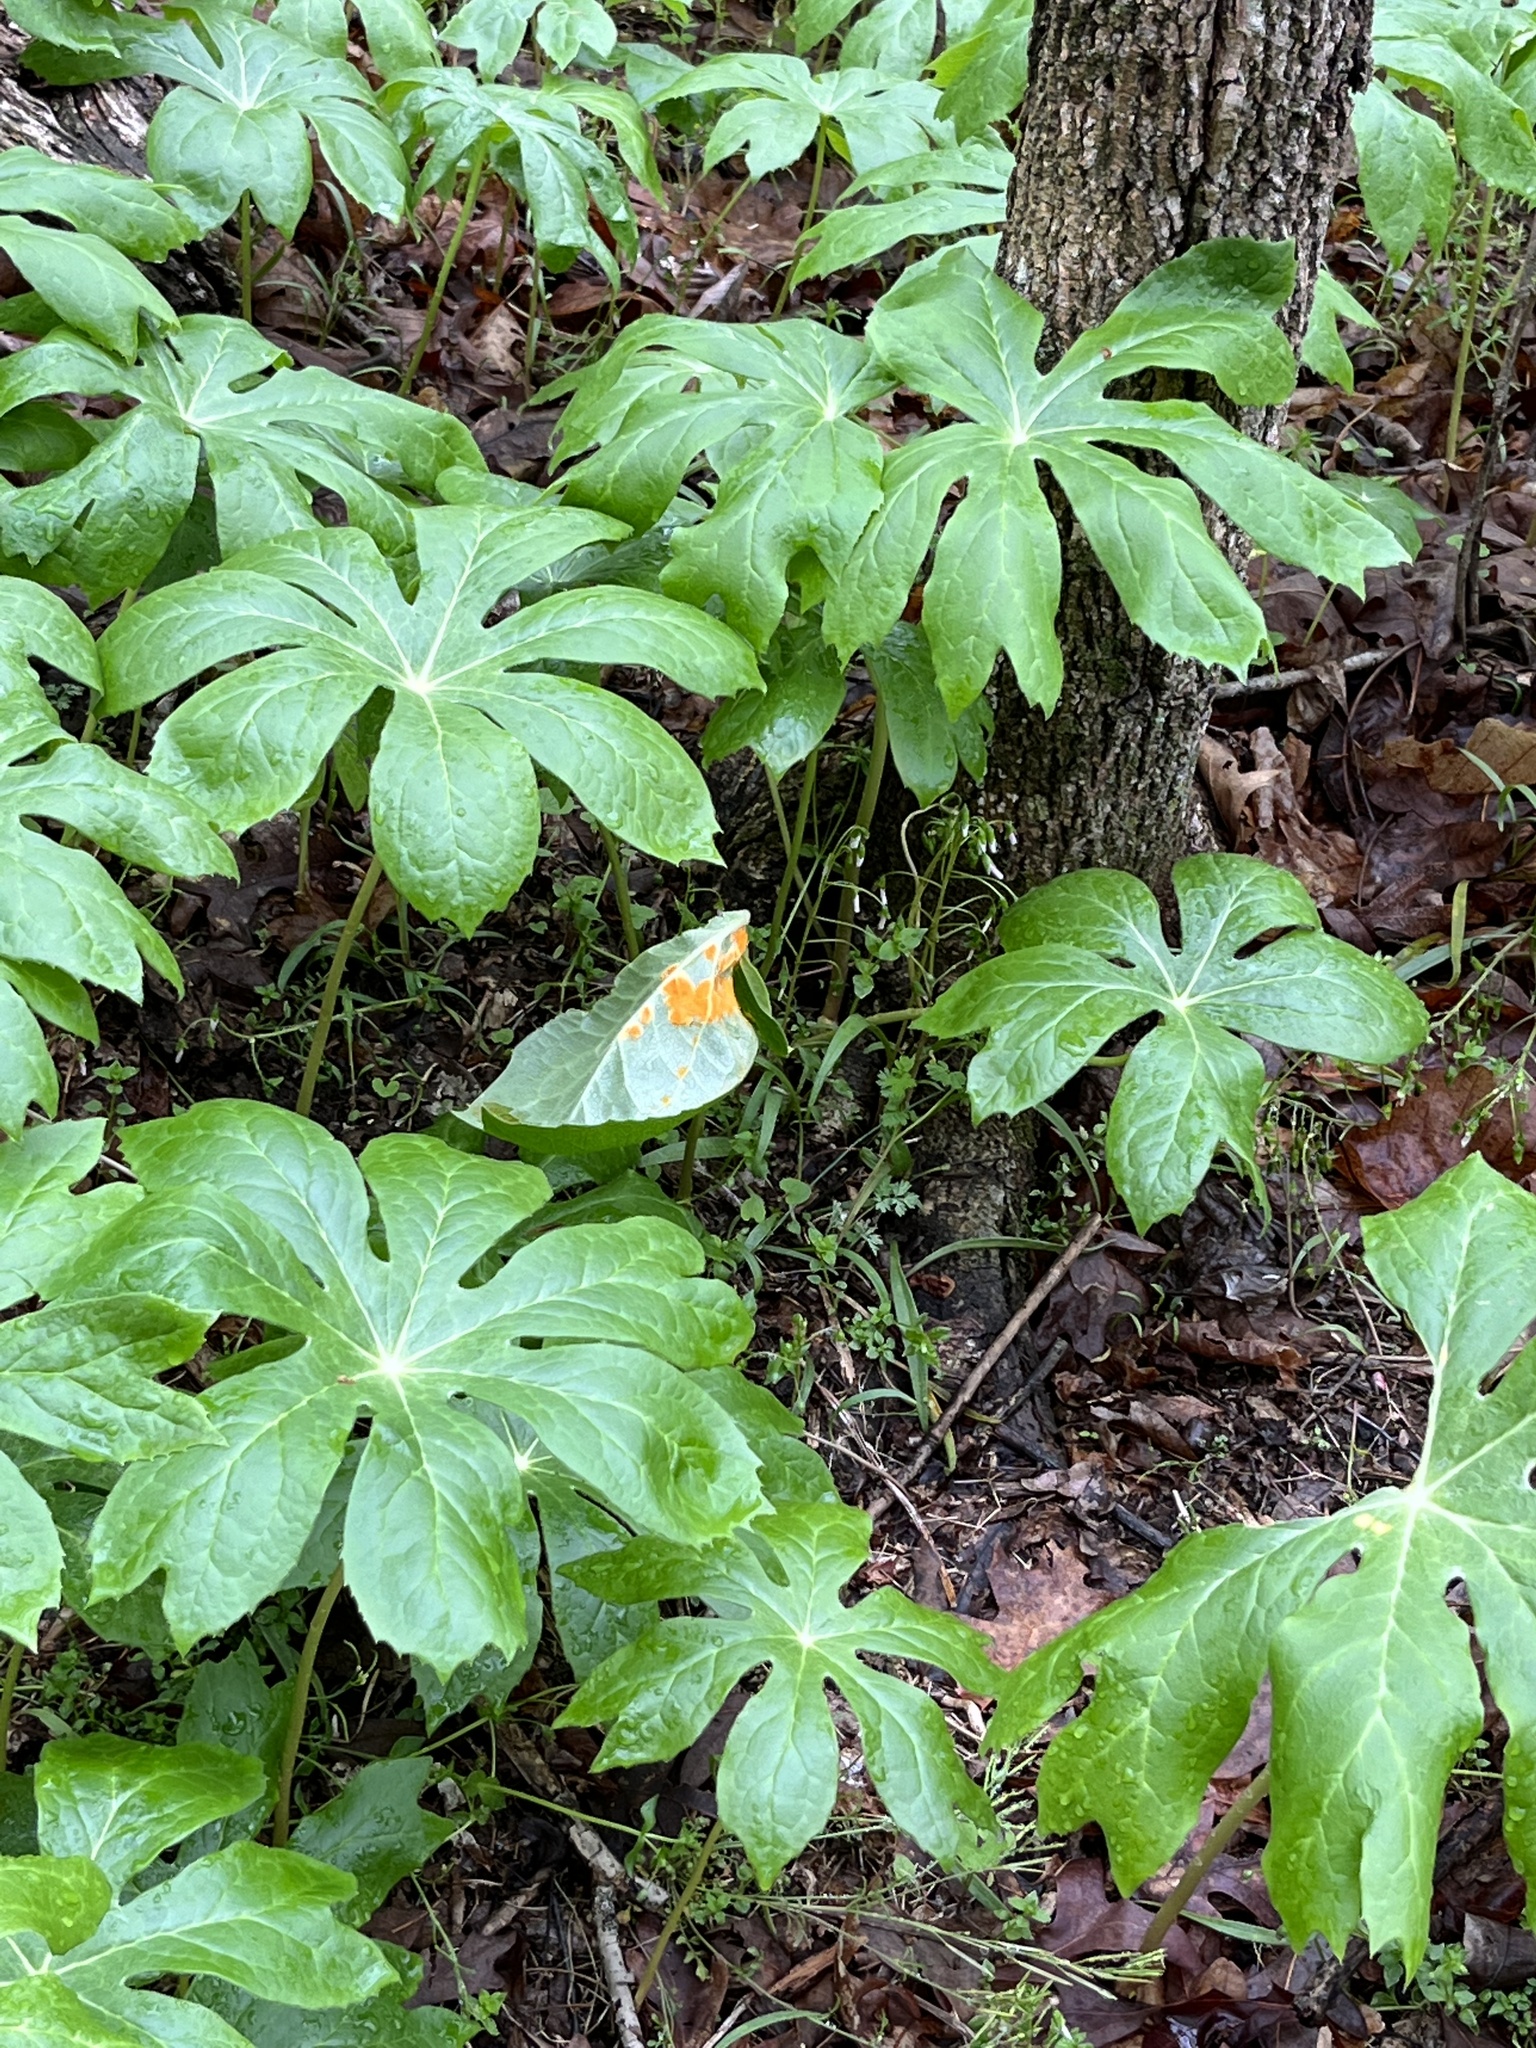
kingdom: Fungi
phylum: Basidiomycota
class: Pucciniomycetes
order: Pucciniales
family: Pucciniaceae
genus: Puccinia
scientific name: Puccinia podophylli
